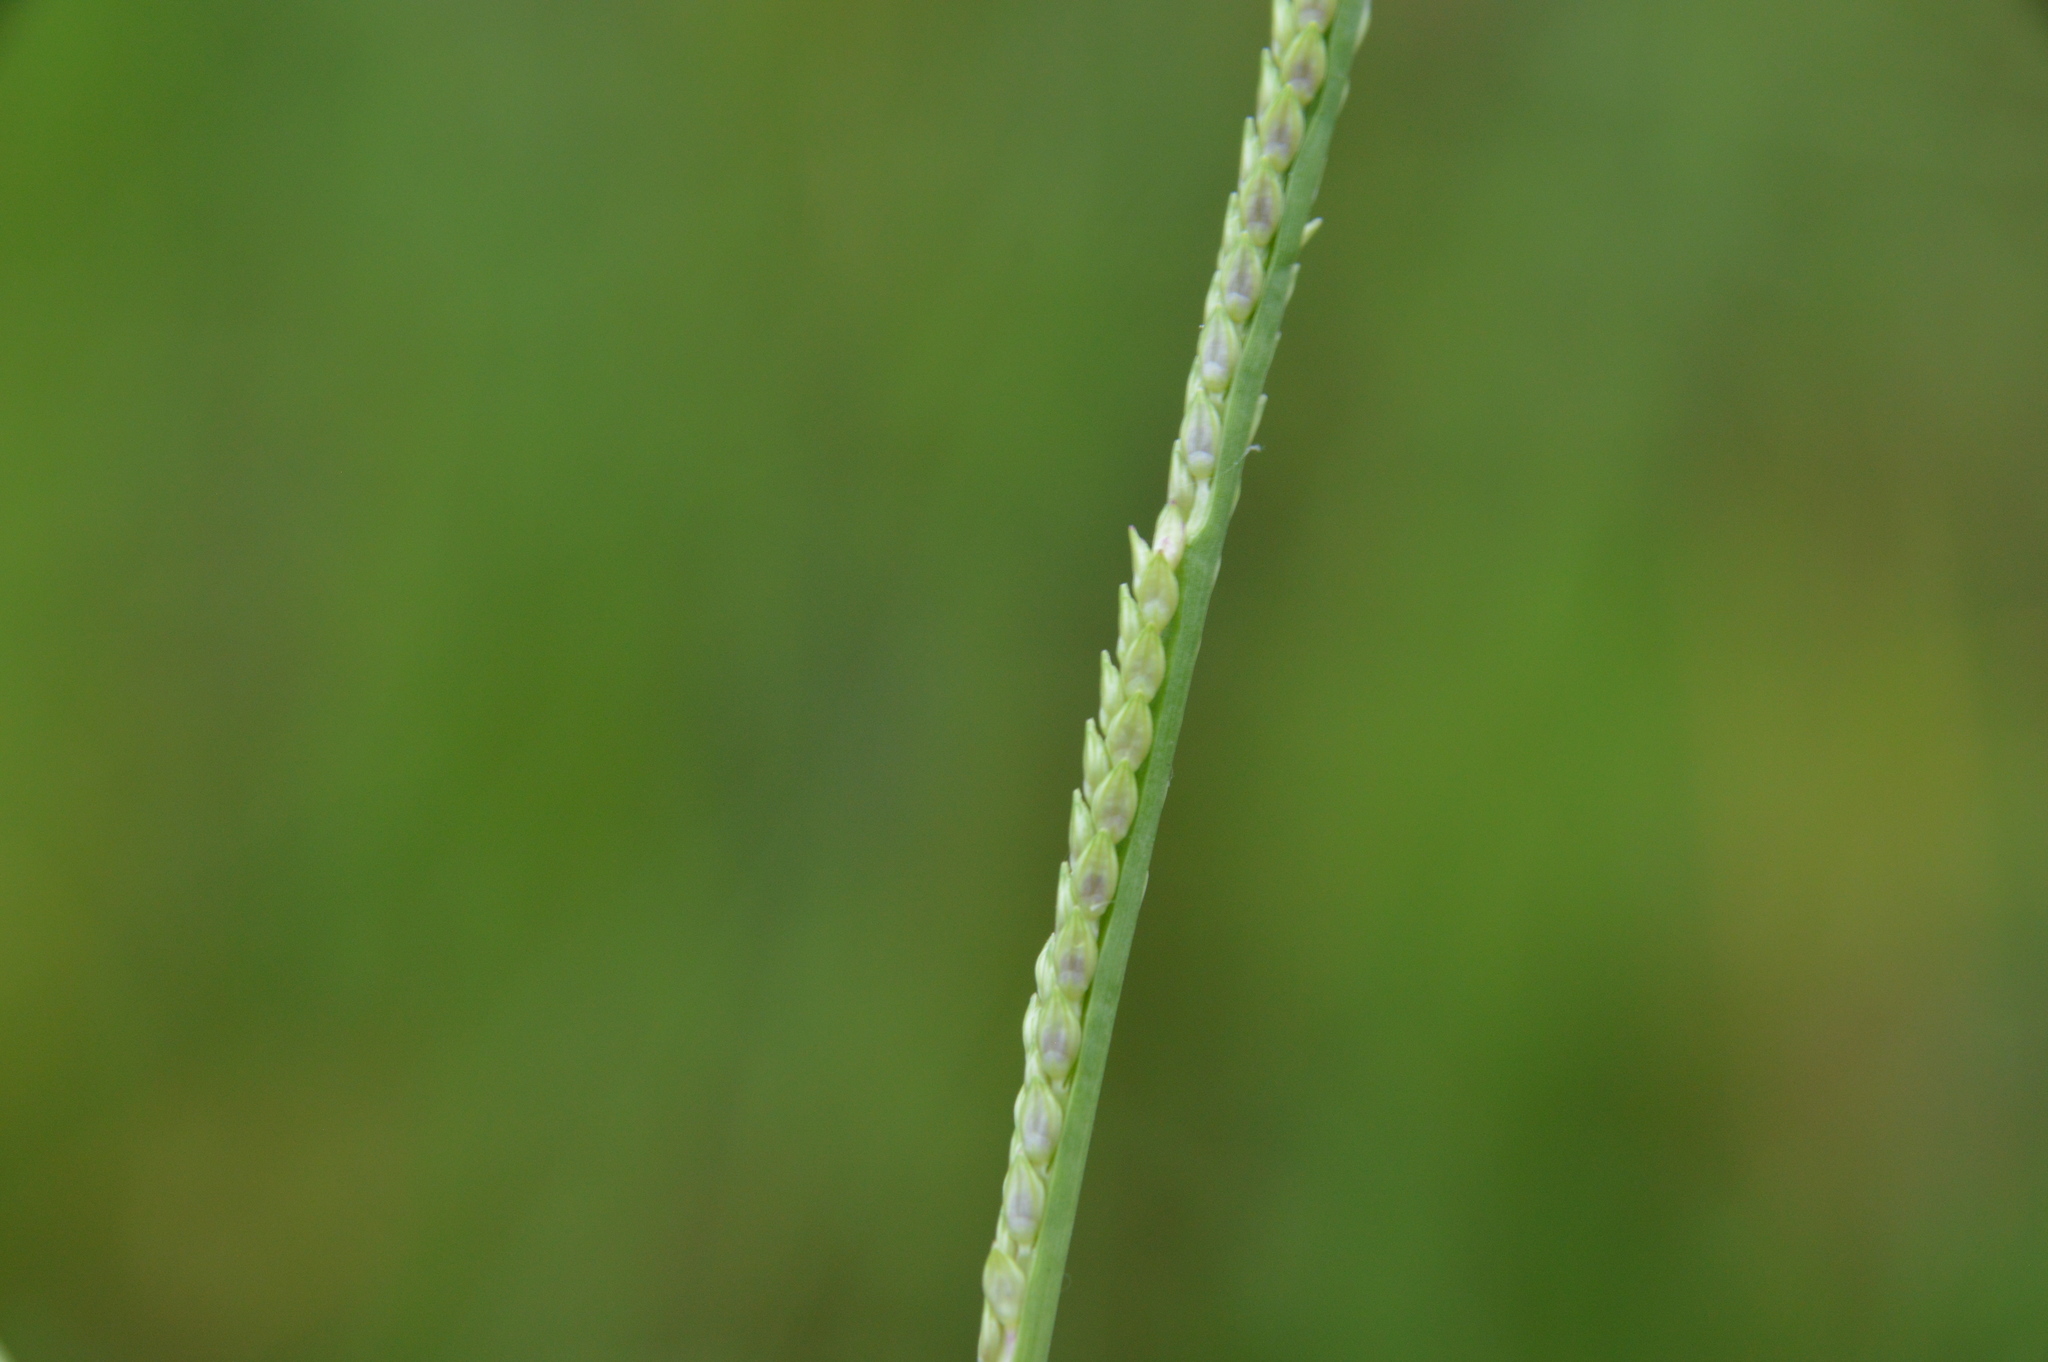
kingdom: Plantae
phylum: Tracheophyta
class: Liliopsida
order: Poales
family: Poaceae
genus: Setaria
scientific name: Setaria geminata
